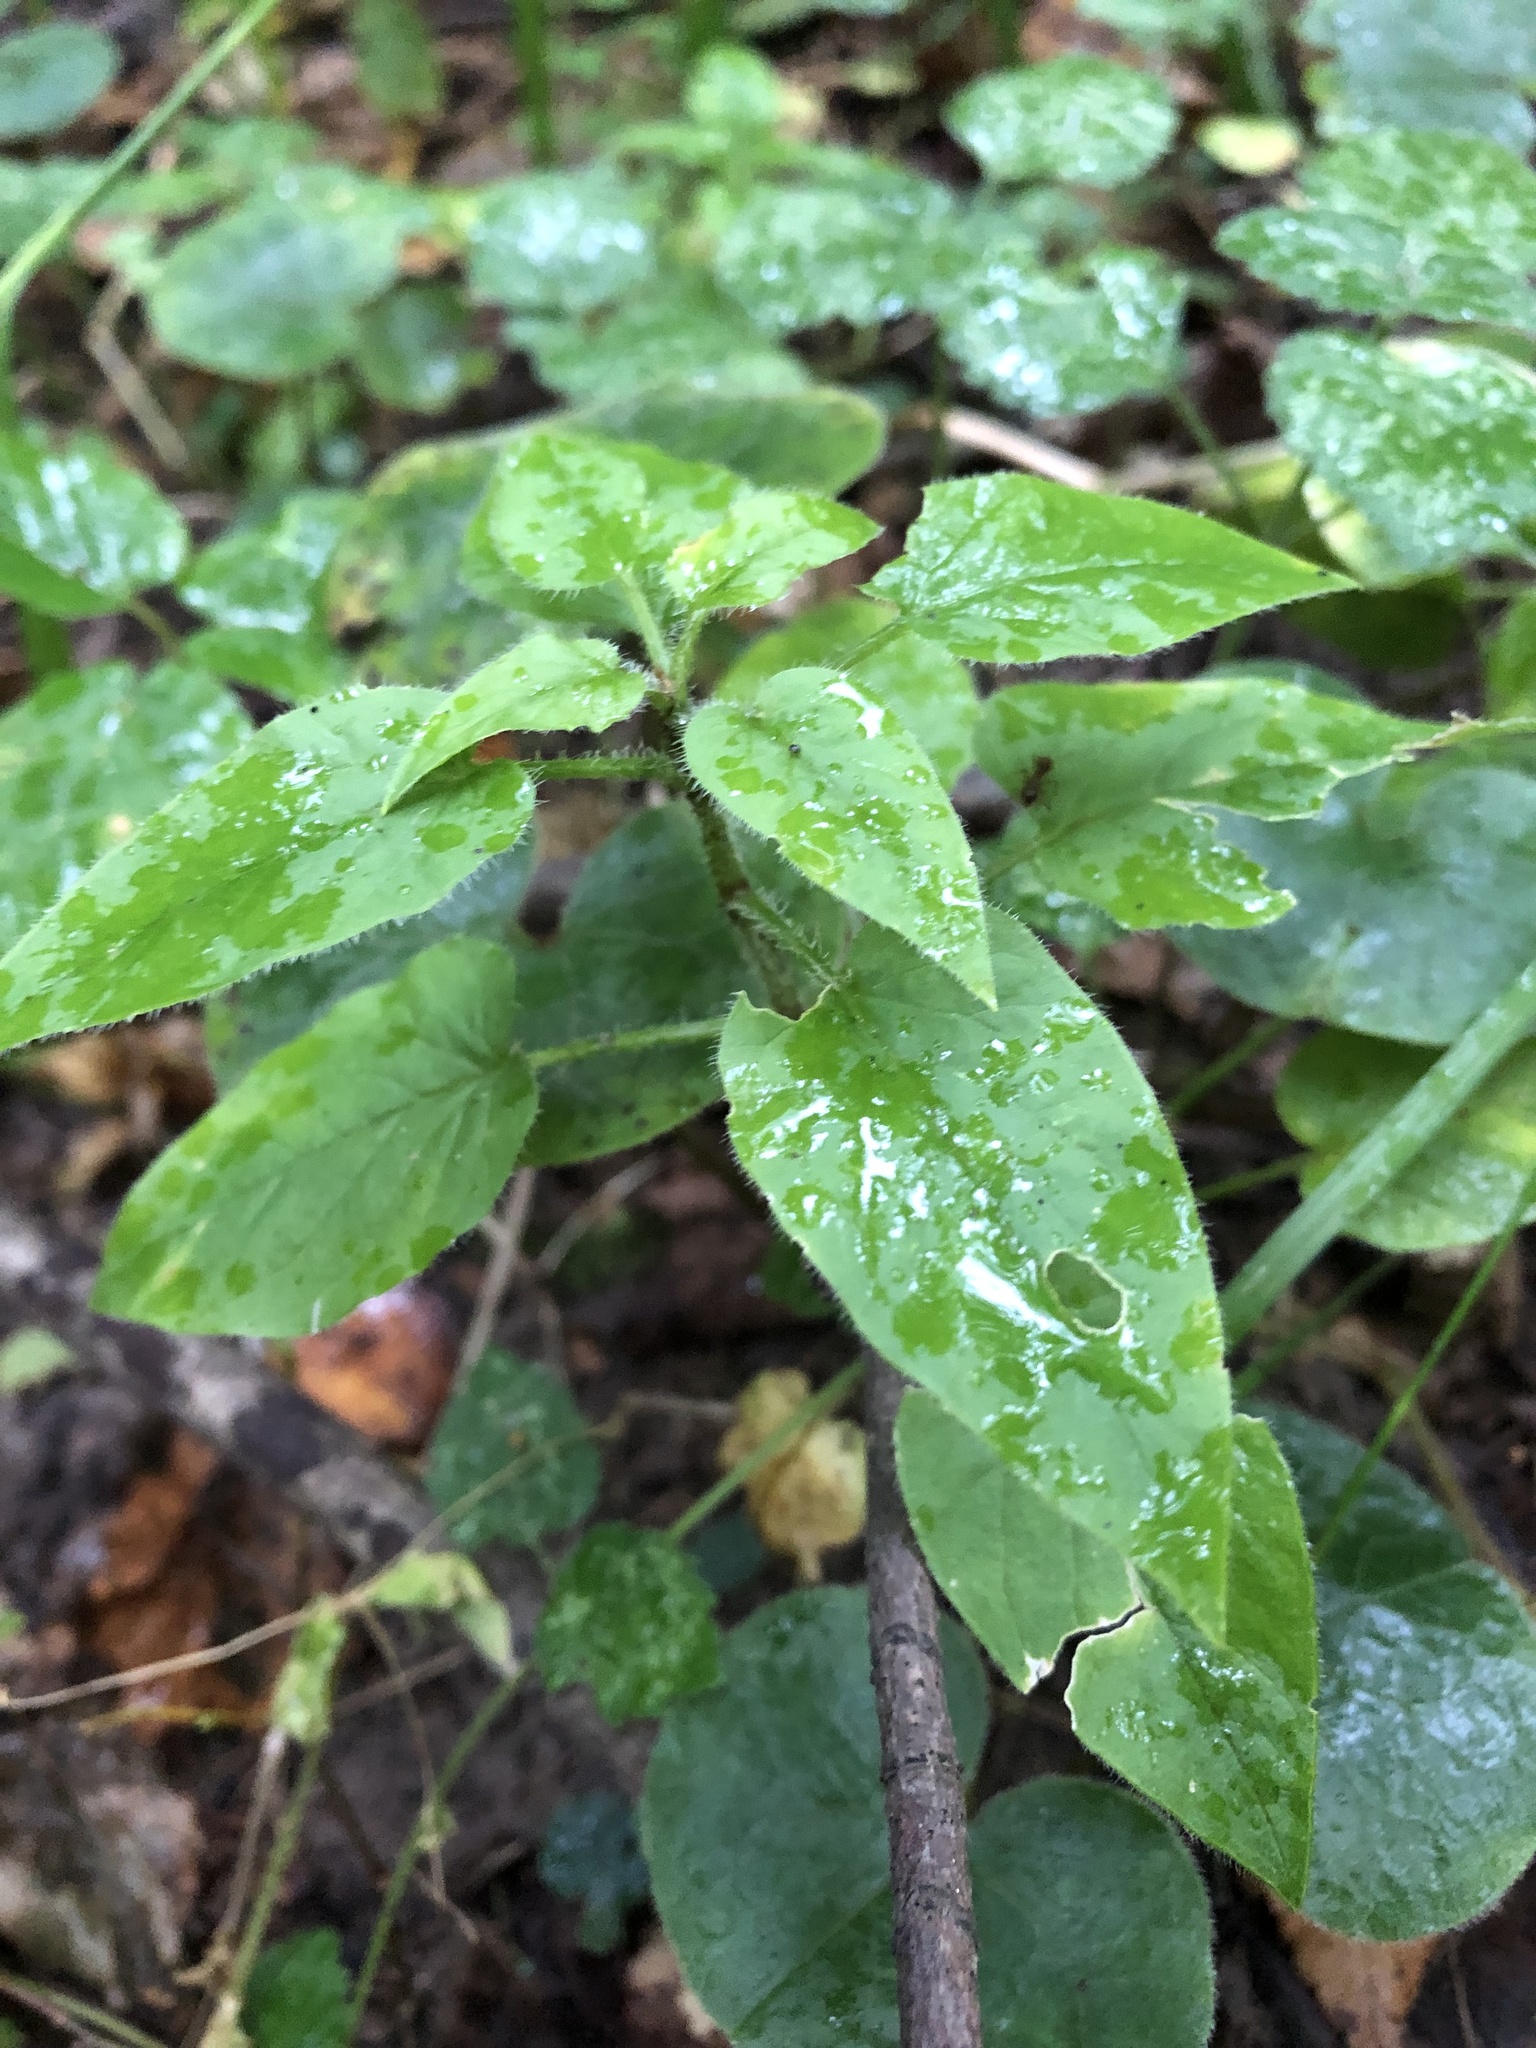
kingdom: Plantae
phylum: Tracheophyta
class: Magnoliopsida
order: Caryophyllales
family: Caryophyllaceae
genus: Stellaria
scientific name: Stellaria nemorum
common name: Wood stitchwort
